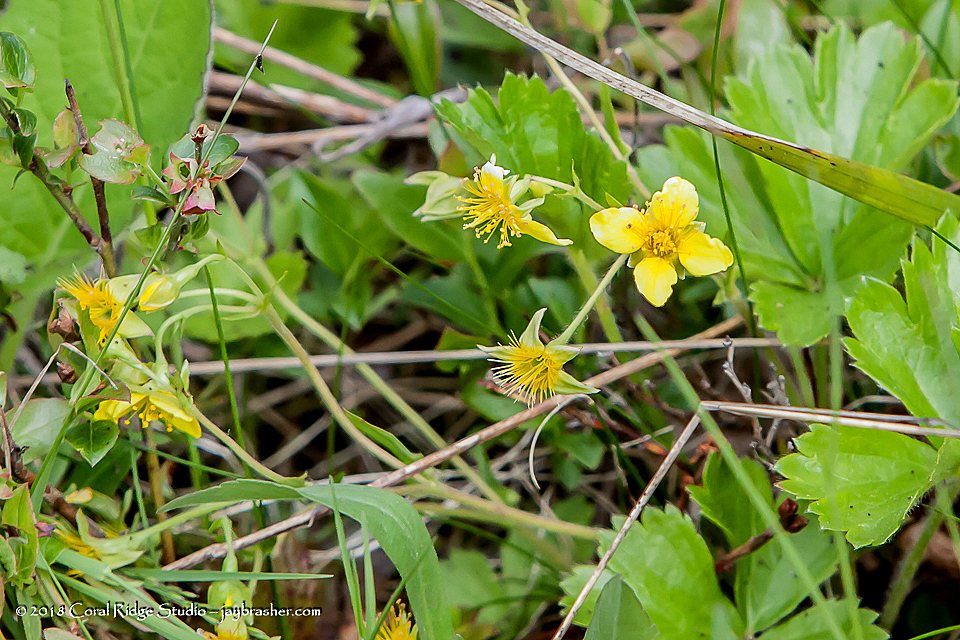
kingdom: Plantae
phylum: Tracheophyta
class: Magnoliopsida
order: Rosales
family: Rosaceae
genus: Geum
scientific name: Geum fragarioides
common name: Appalachian barren strawberry
